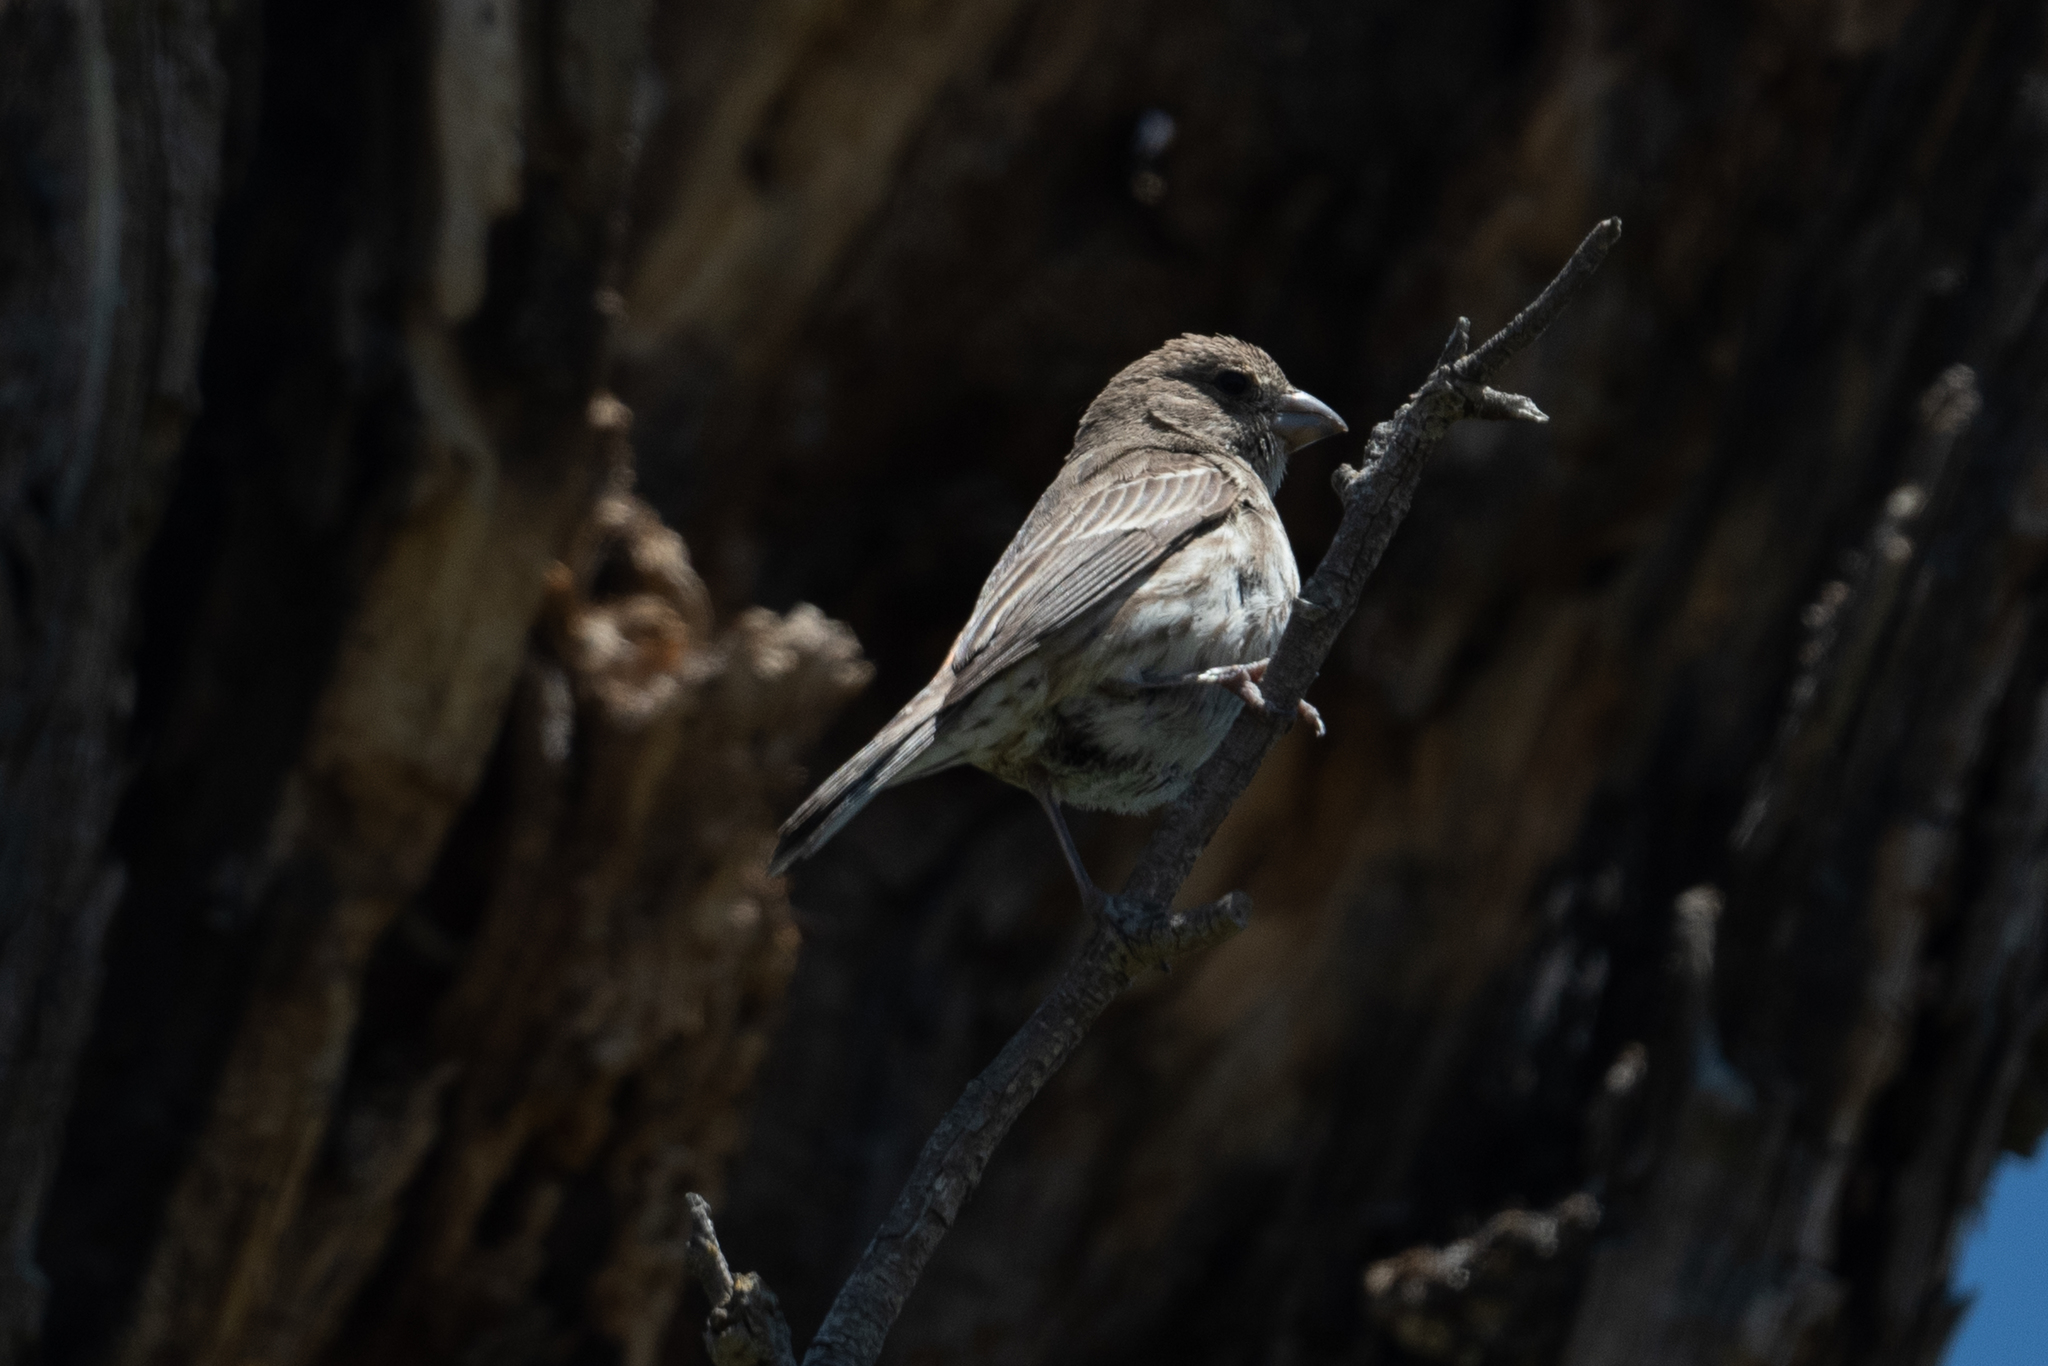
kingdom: Animalia
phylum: Chordata
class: Aves
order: Passeriformes
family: Fringillidae
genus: Haemorhous
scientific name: Haemorhous mexicanus
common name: House finch
